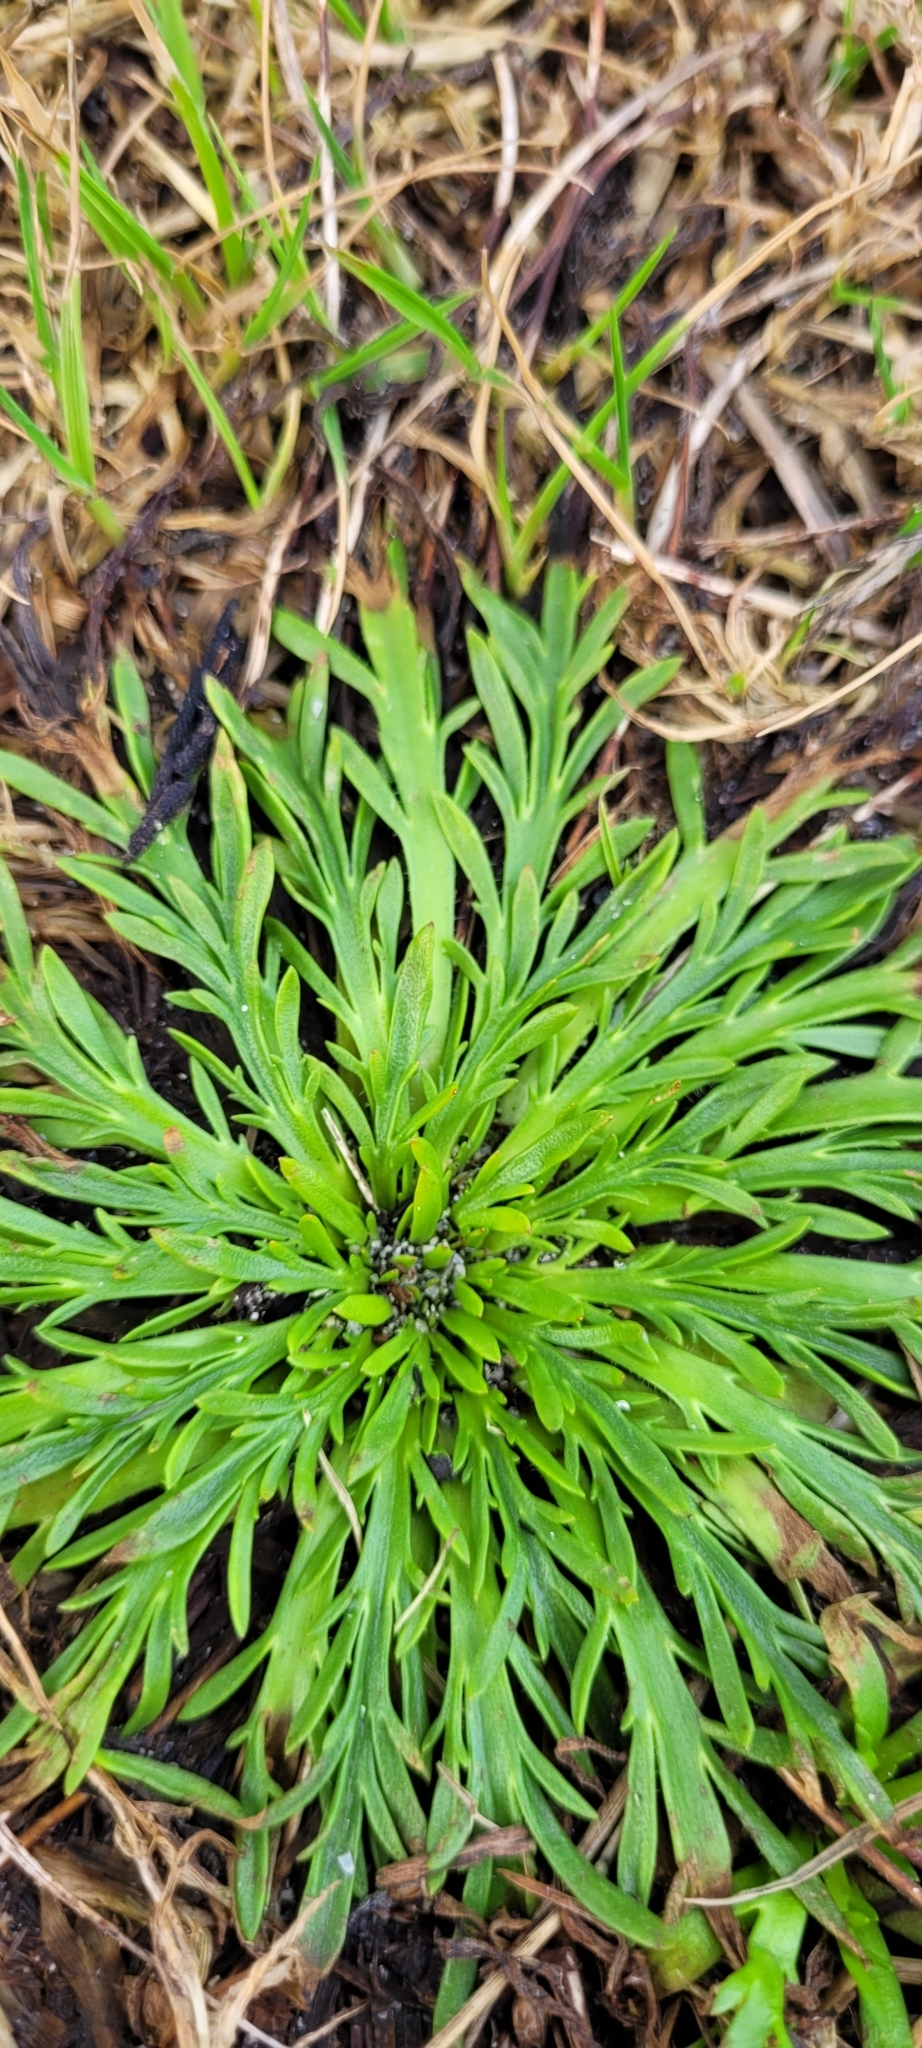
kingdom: Plantae
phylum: Tracheophyta
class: Magnoliopsida
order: Lamiales
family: Plantaginaceae
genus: Plantago
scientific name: Plantago coronopus
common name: Buck's-horn plantain
